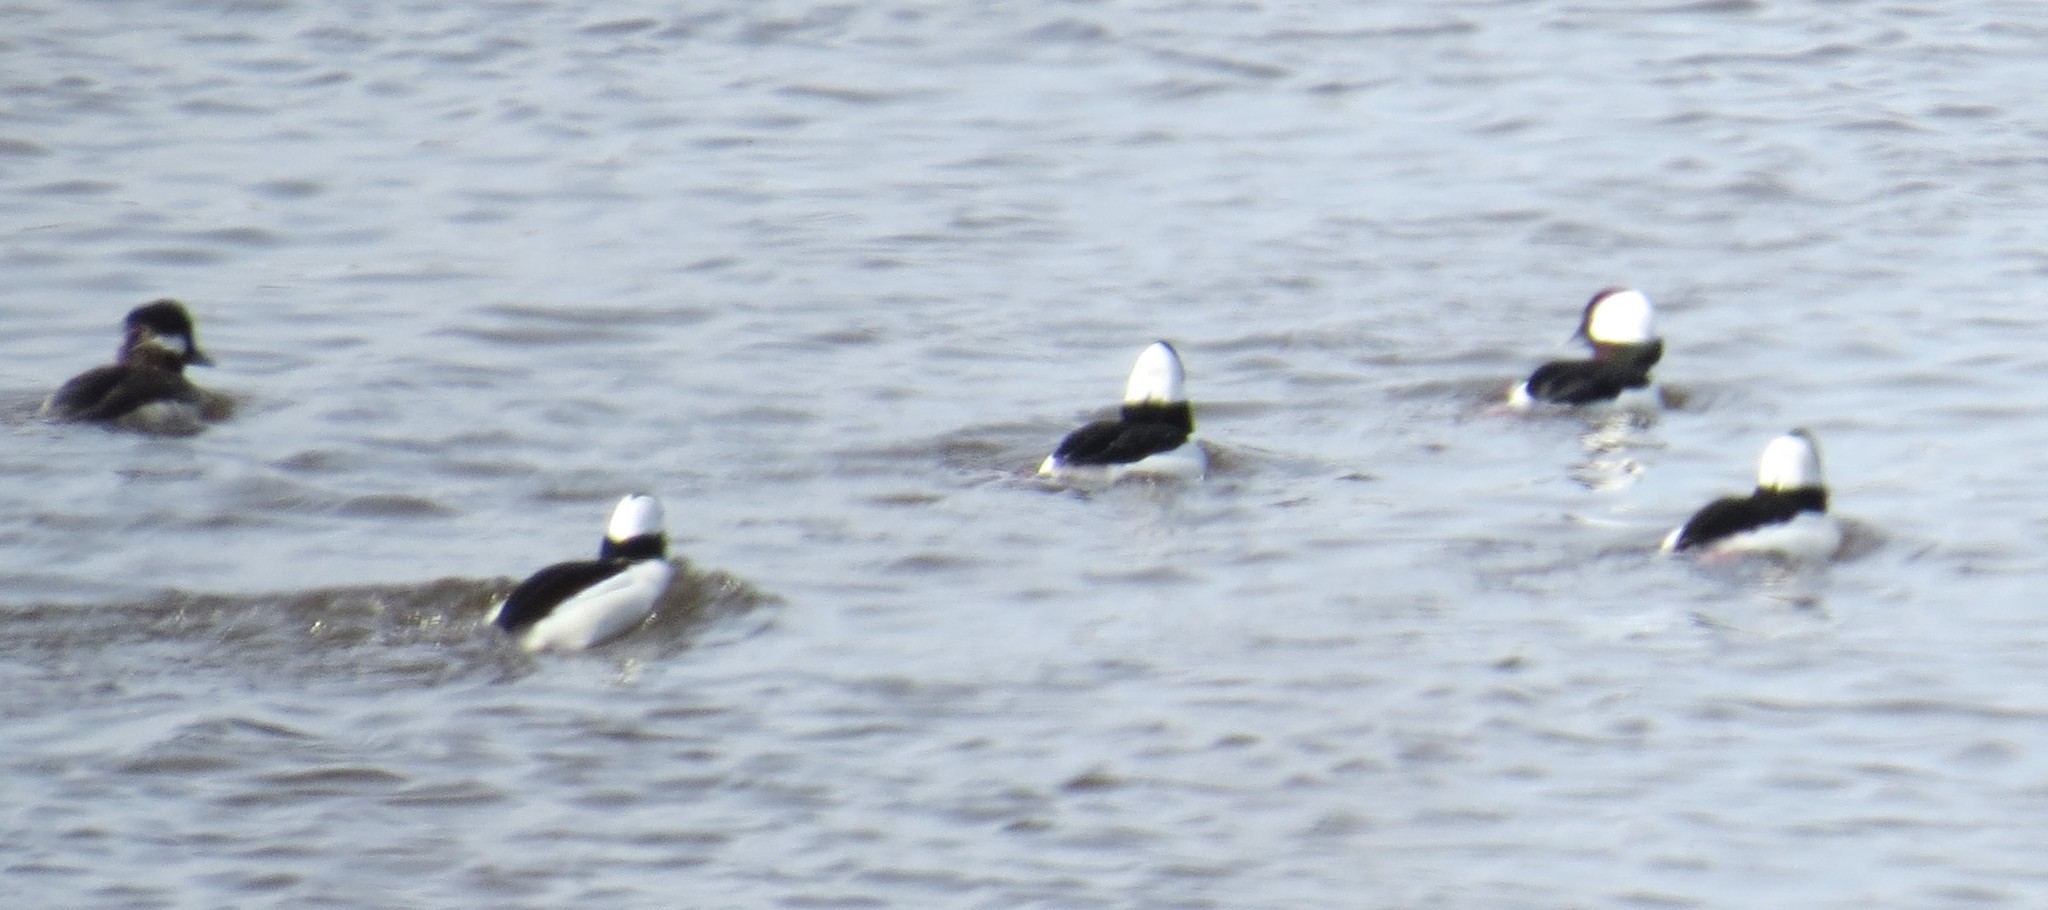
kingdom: Animalia
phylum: Chordata
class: Aves
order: Anseriformes
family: Anatidae
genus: Bucephala
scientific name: Bucephala albeola
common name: Bufflehead
